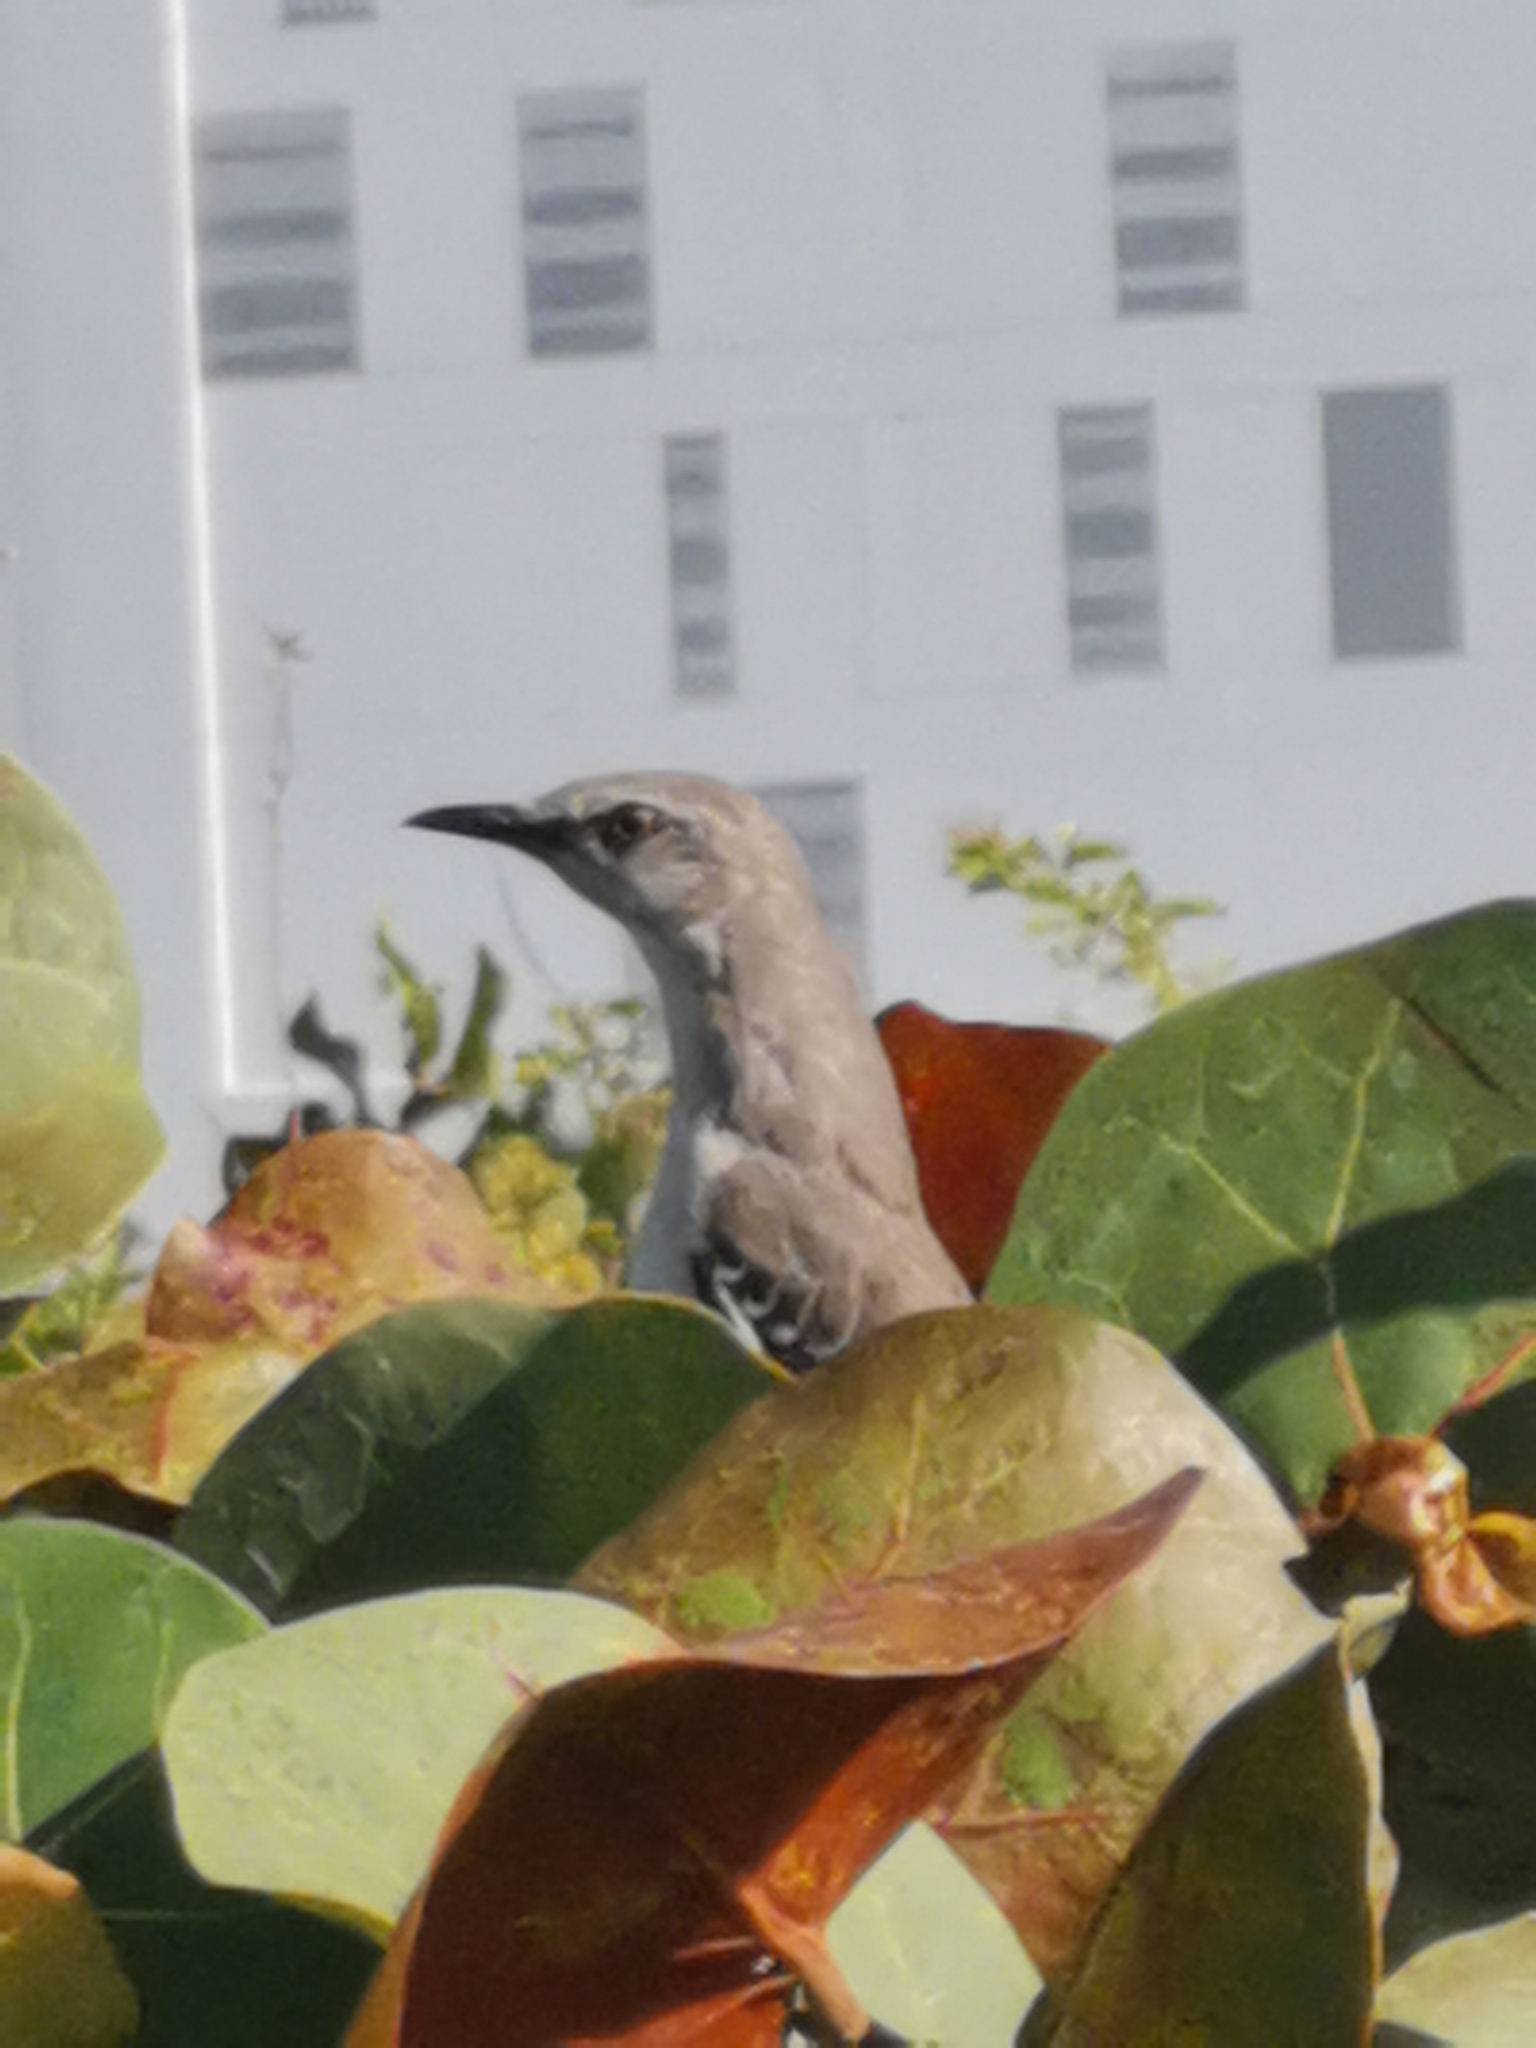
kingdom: Animalia
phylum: Chordata
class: Aves
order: Passeriformes
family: Mimidae
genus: Mimus
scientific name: Mimus polyglottos
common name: Northern mockingbird
